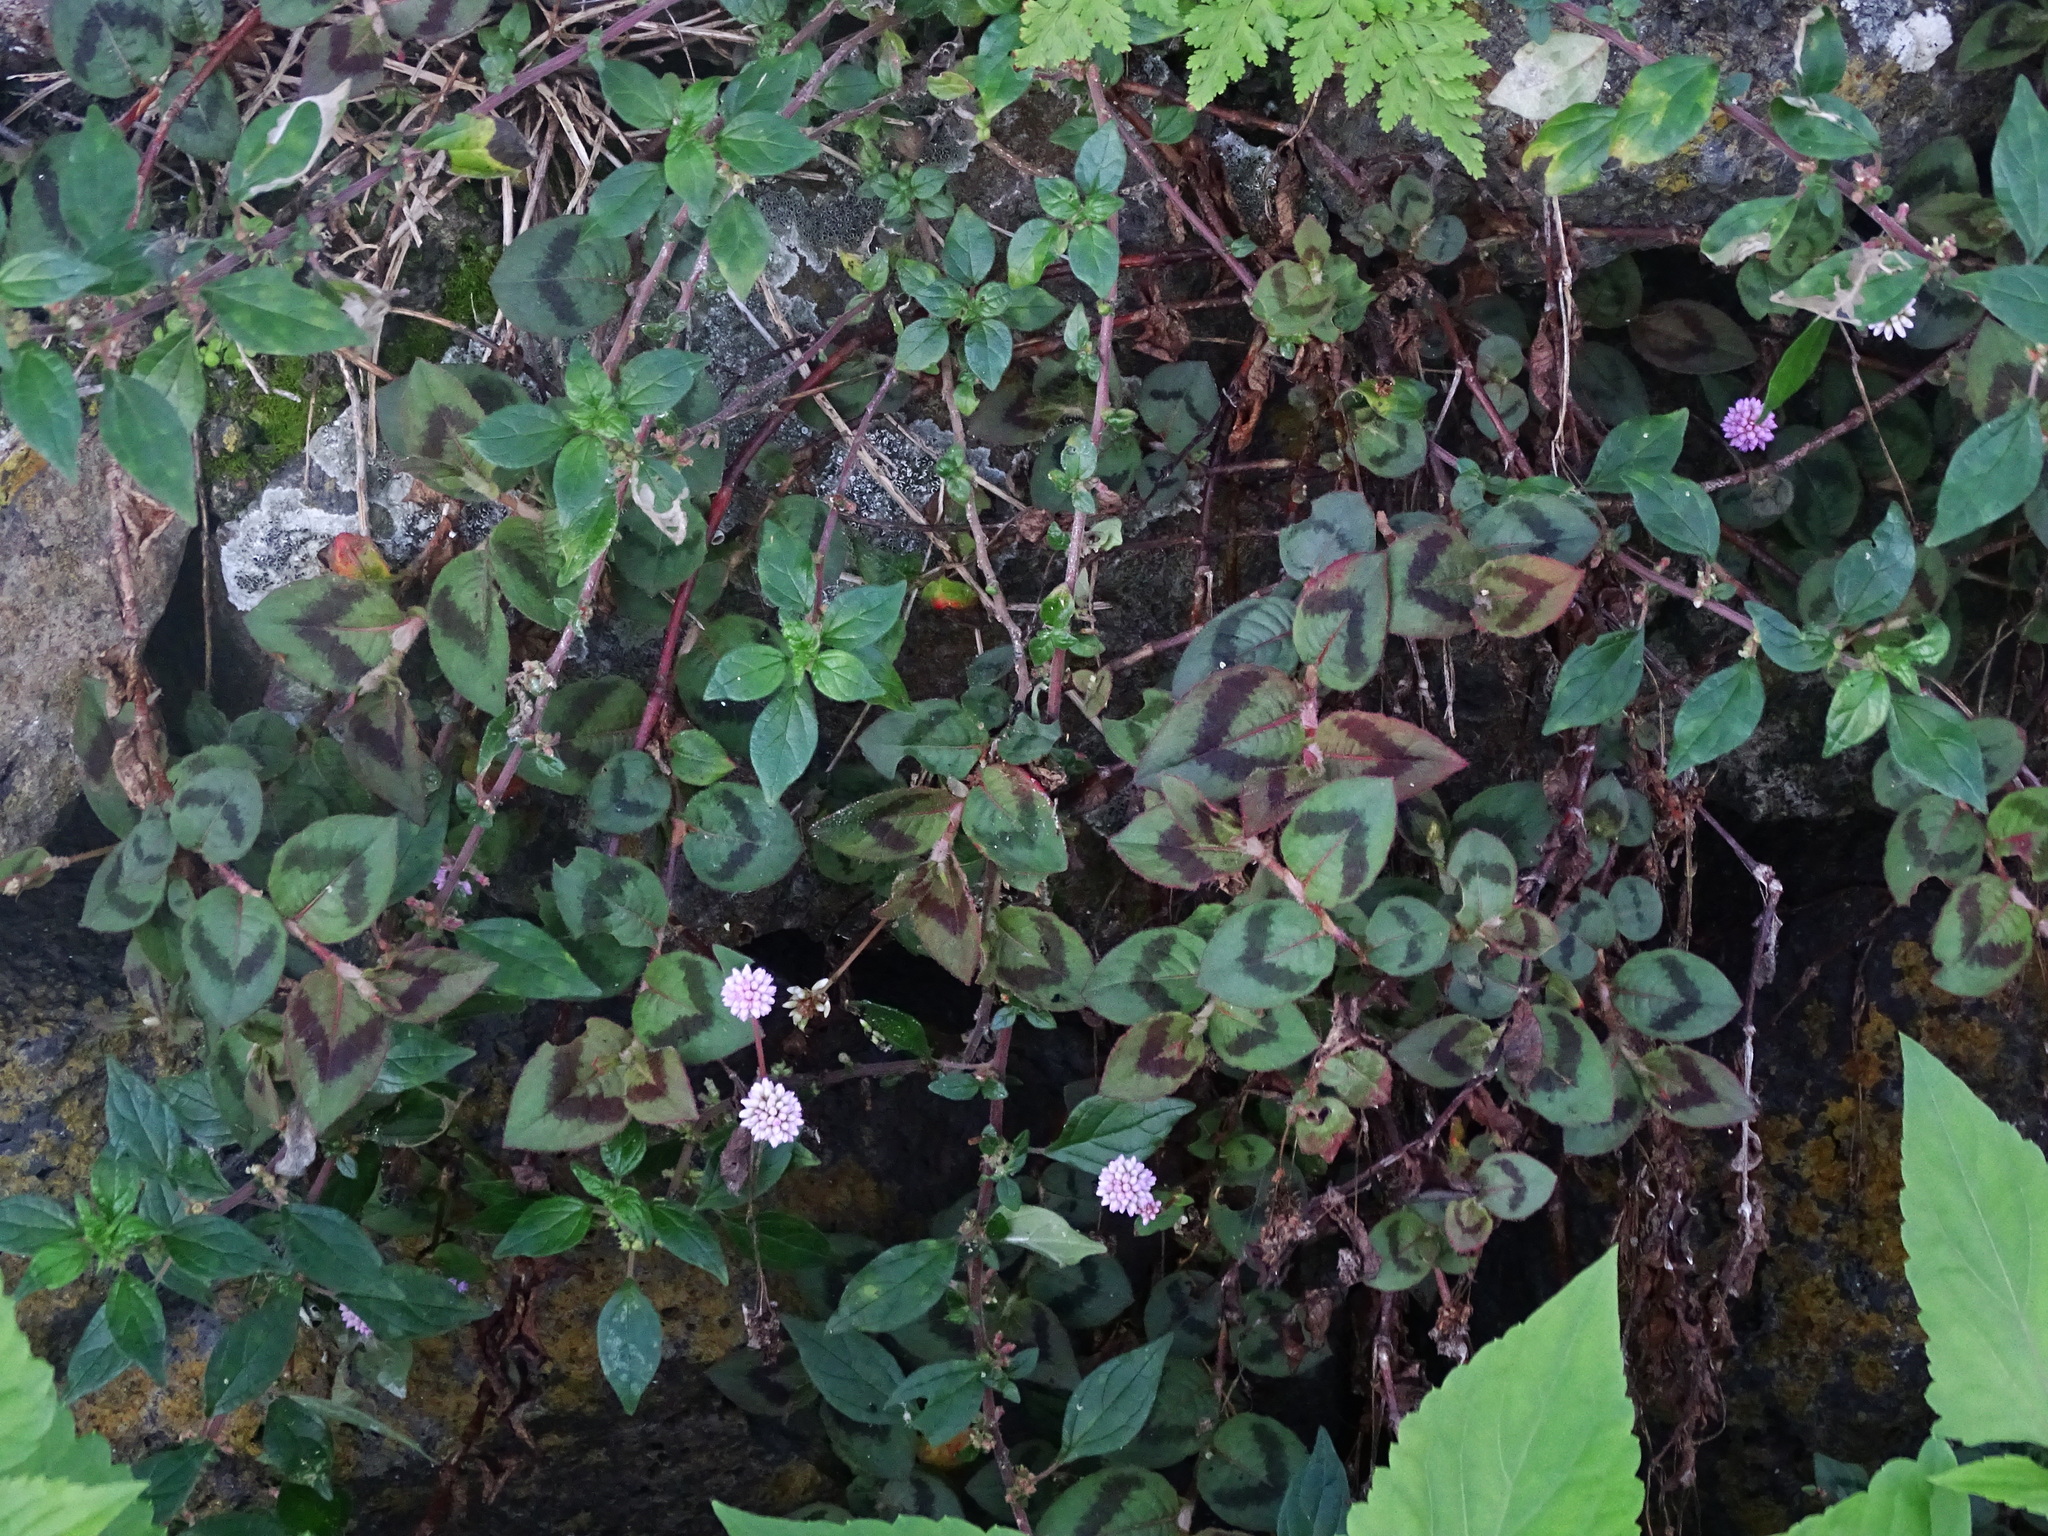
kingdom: Plantae
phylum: Tracheophyta
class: Magnoliopsida
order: Caryophyllales
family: Polygonaceae
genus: Persicaria
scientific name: Persicaria capitata
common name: Pinkhead smartweed
